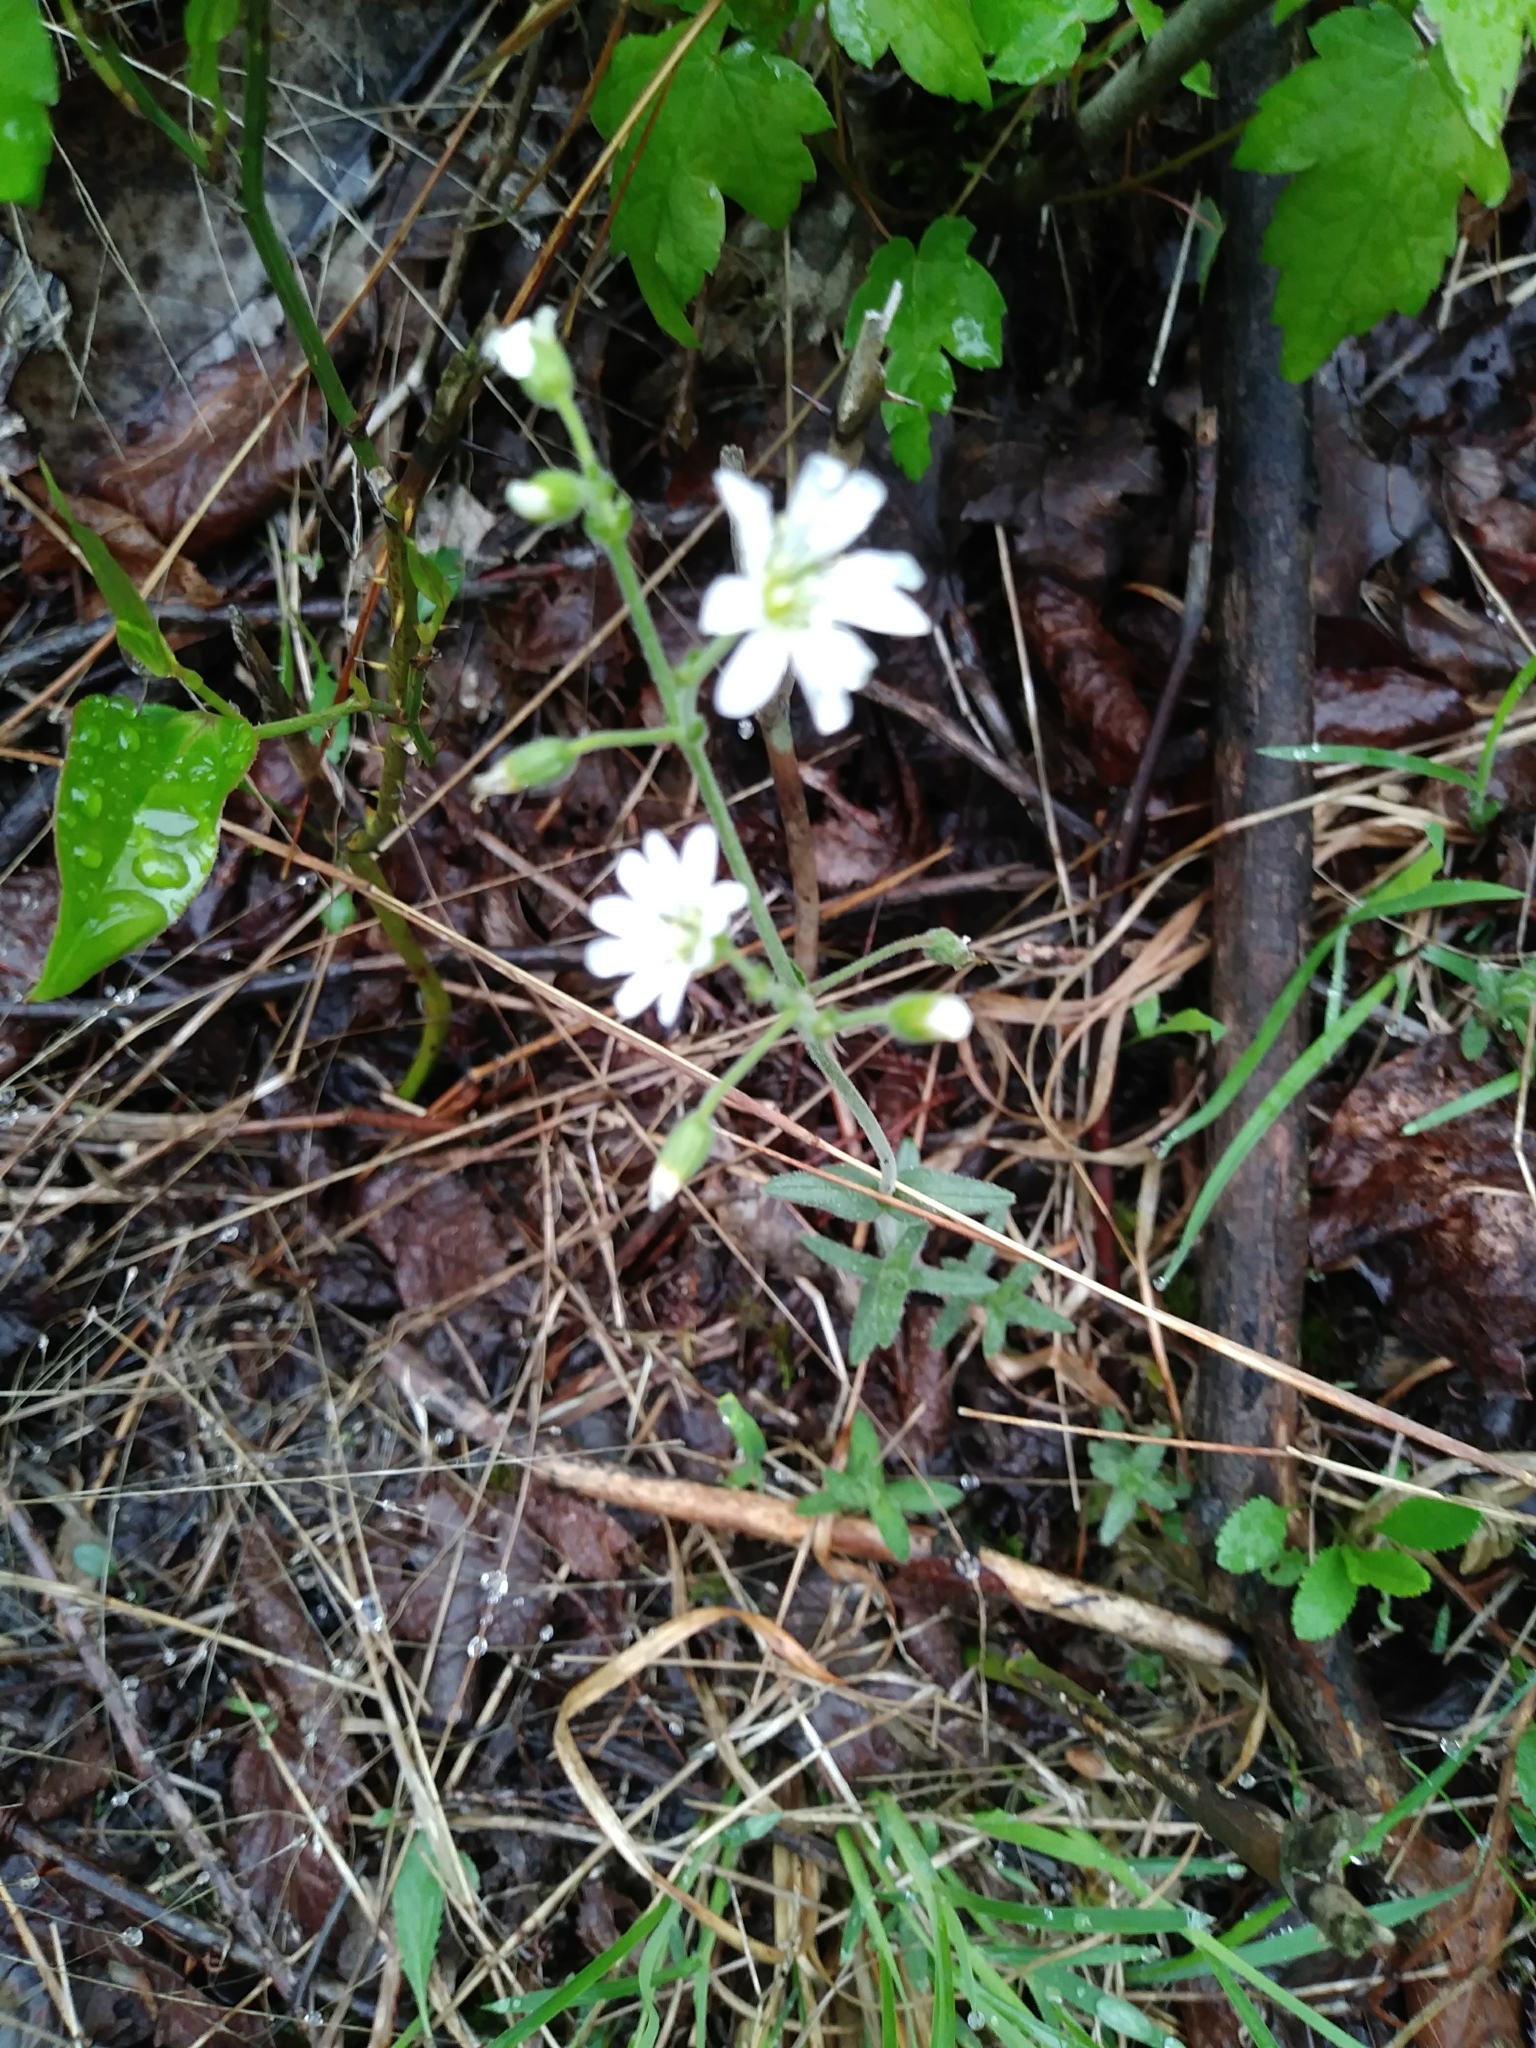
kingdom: Plantae
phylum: Tracheophyta
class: Magnoliopsida
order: Caryophyllales
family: Caryophyllaceae
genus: Cerastium
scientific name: Cerastium velutinum
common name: Barren chickweed
